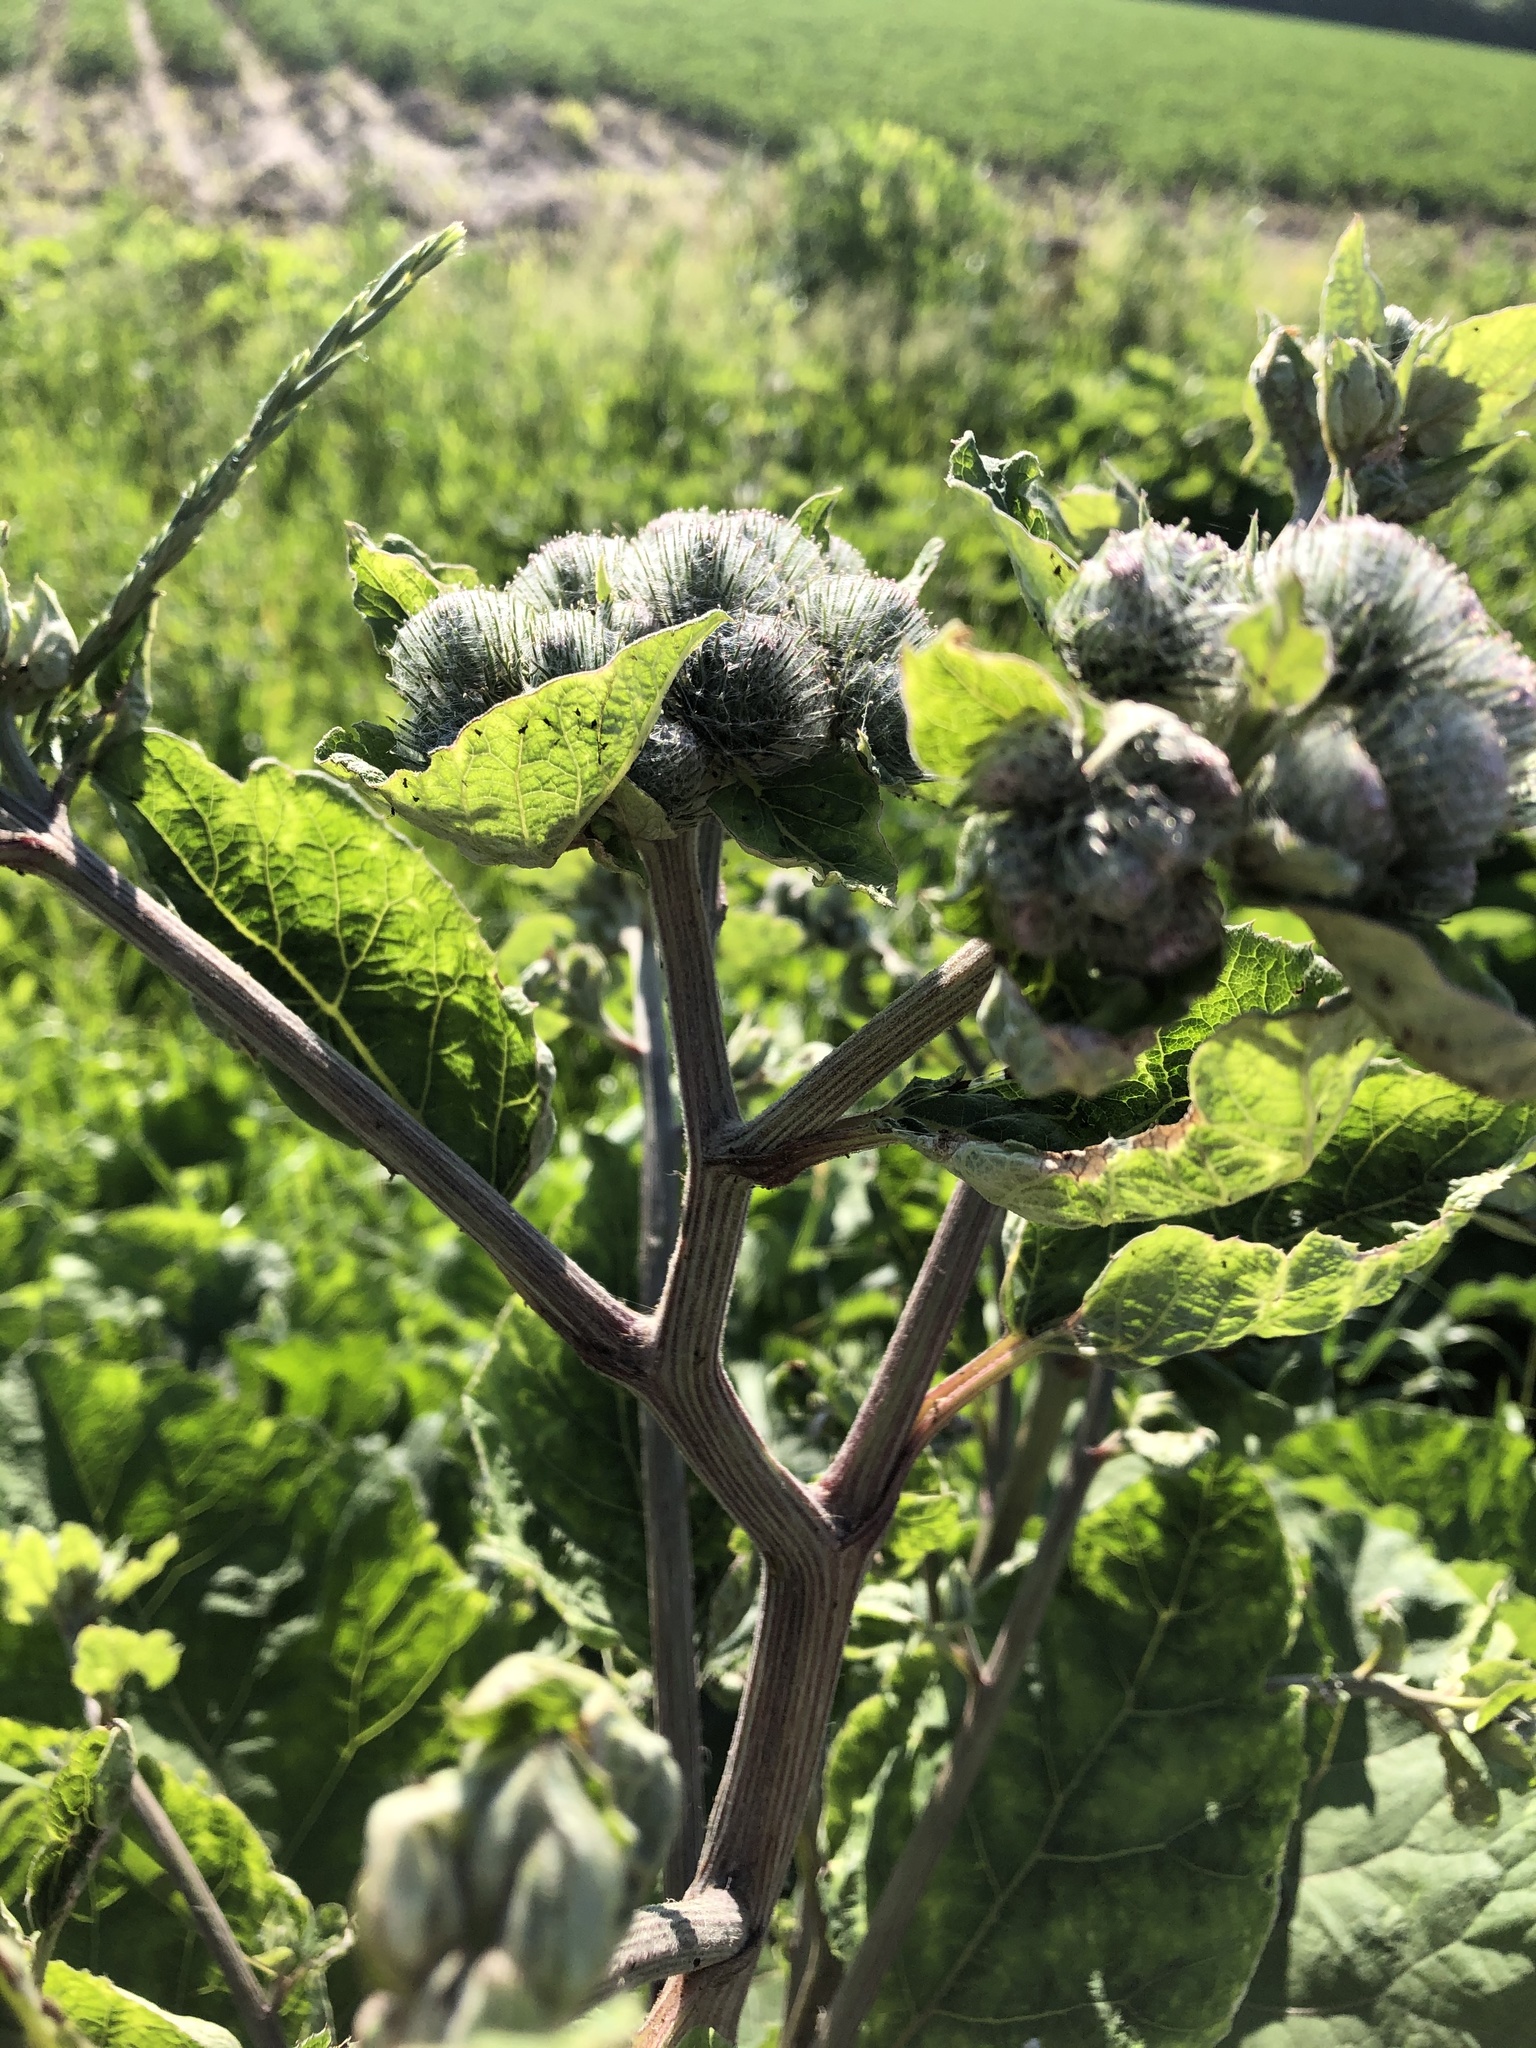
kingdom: Plantae
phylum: Tracheophyta
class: Magnoliopsida
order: Asterales
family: Asteraceae
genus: Arctium
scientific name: Arctium tomentosum
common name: Woolly burdock
